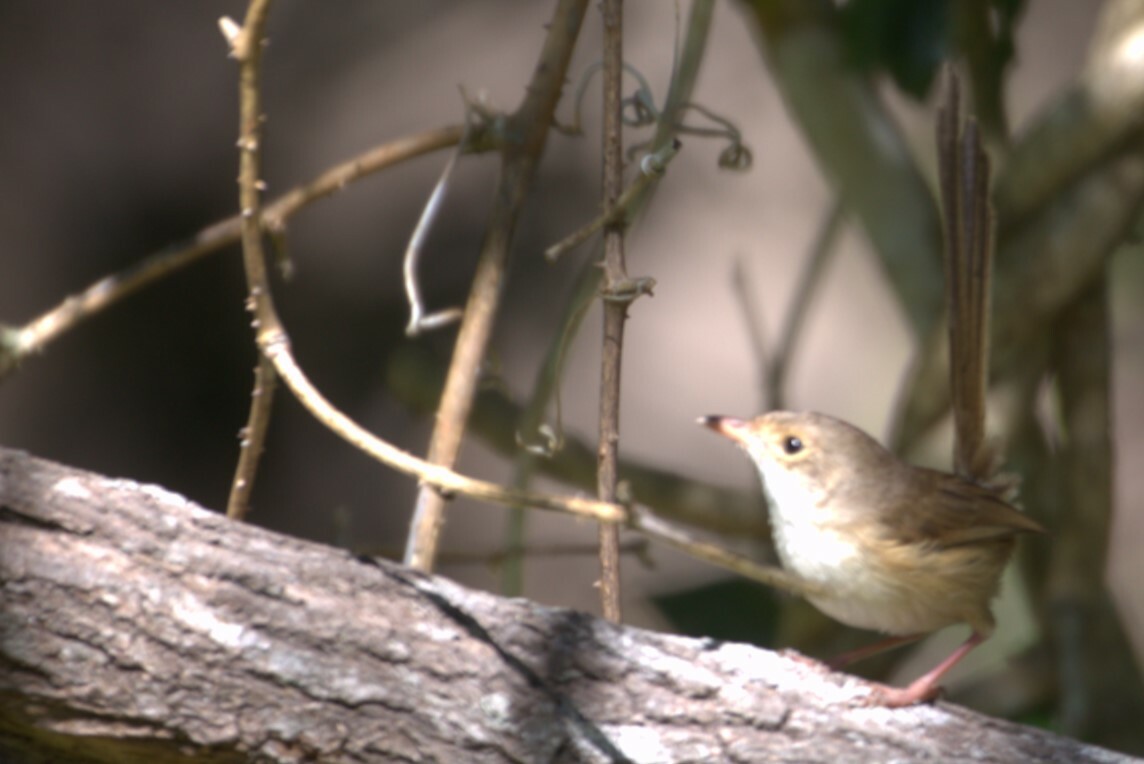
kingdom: Animalia
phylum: Chordata
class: Aves
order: Passeriformes
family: Maluridae
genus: Malurus
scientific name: Malurus melanocephalus
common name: Red-backed fairywren
